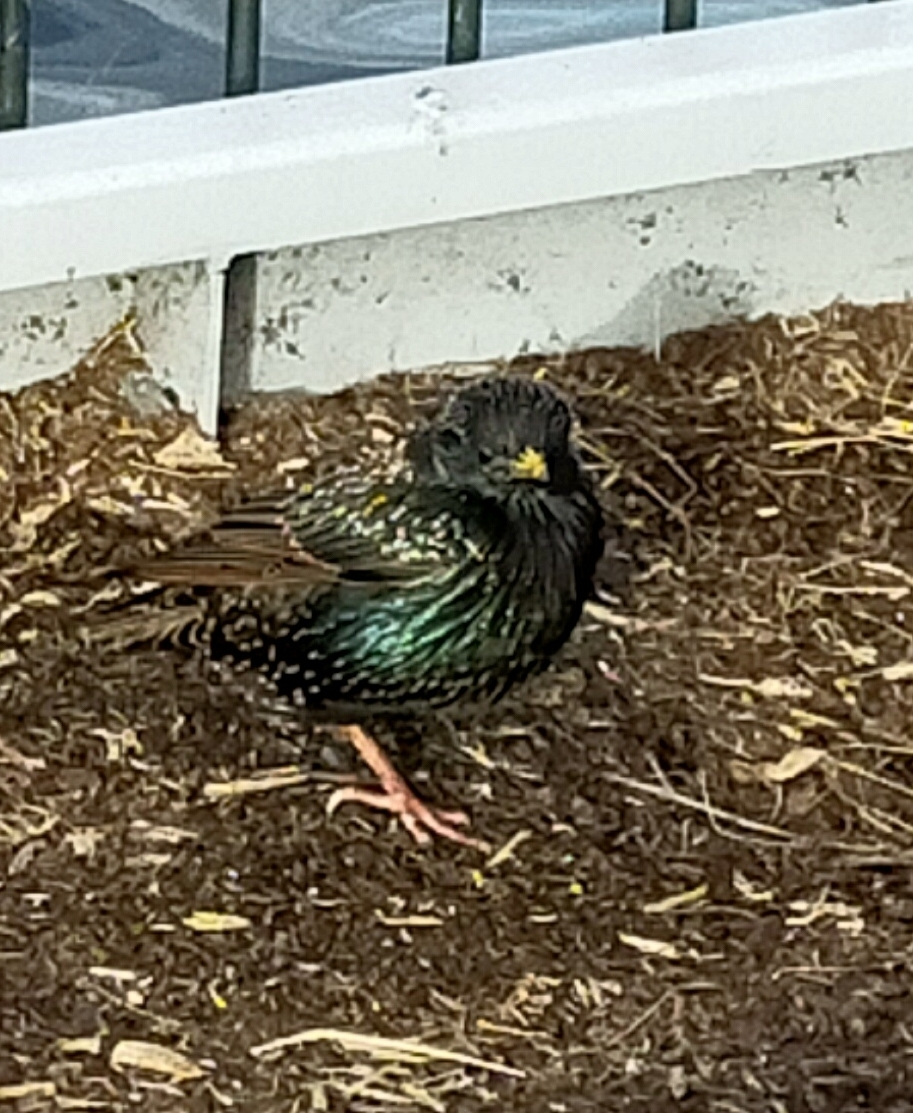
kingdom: Animalia
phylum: Chordata
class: Aves
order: Passeriformes
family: Sturnidae
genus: Sturnus
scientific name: Sturnus vulgaris
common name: Common starling
